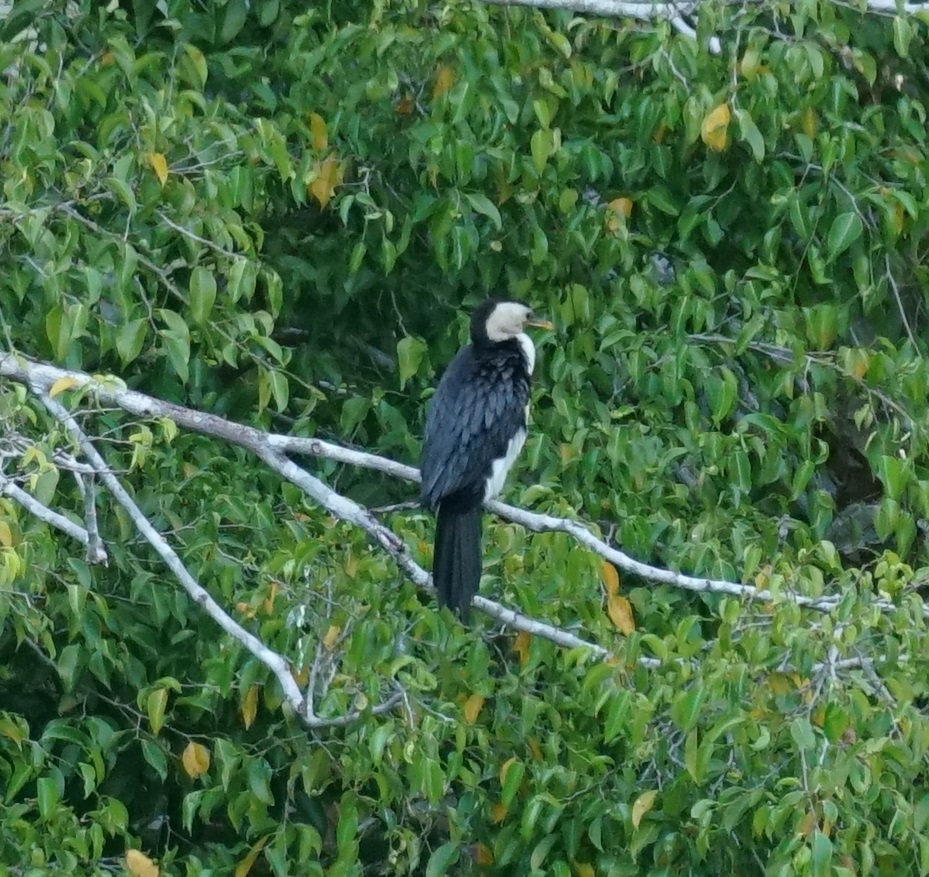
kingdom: Animalia
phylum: Chordata
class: Aves
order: Suliformes
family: Phalacrocoracidae
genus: Microcarbo
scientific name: Microcarbo melanoleucos
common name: Little pied cormorant
